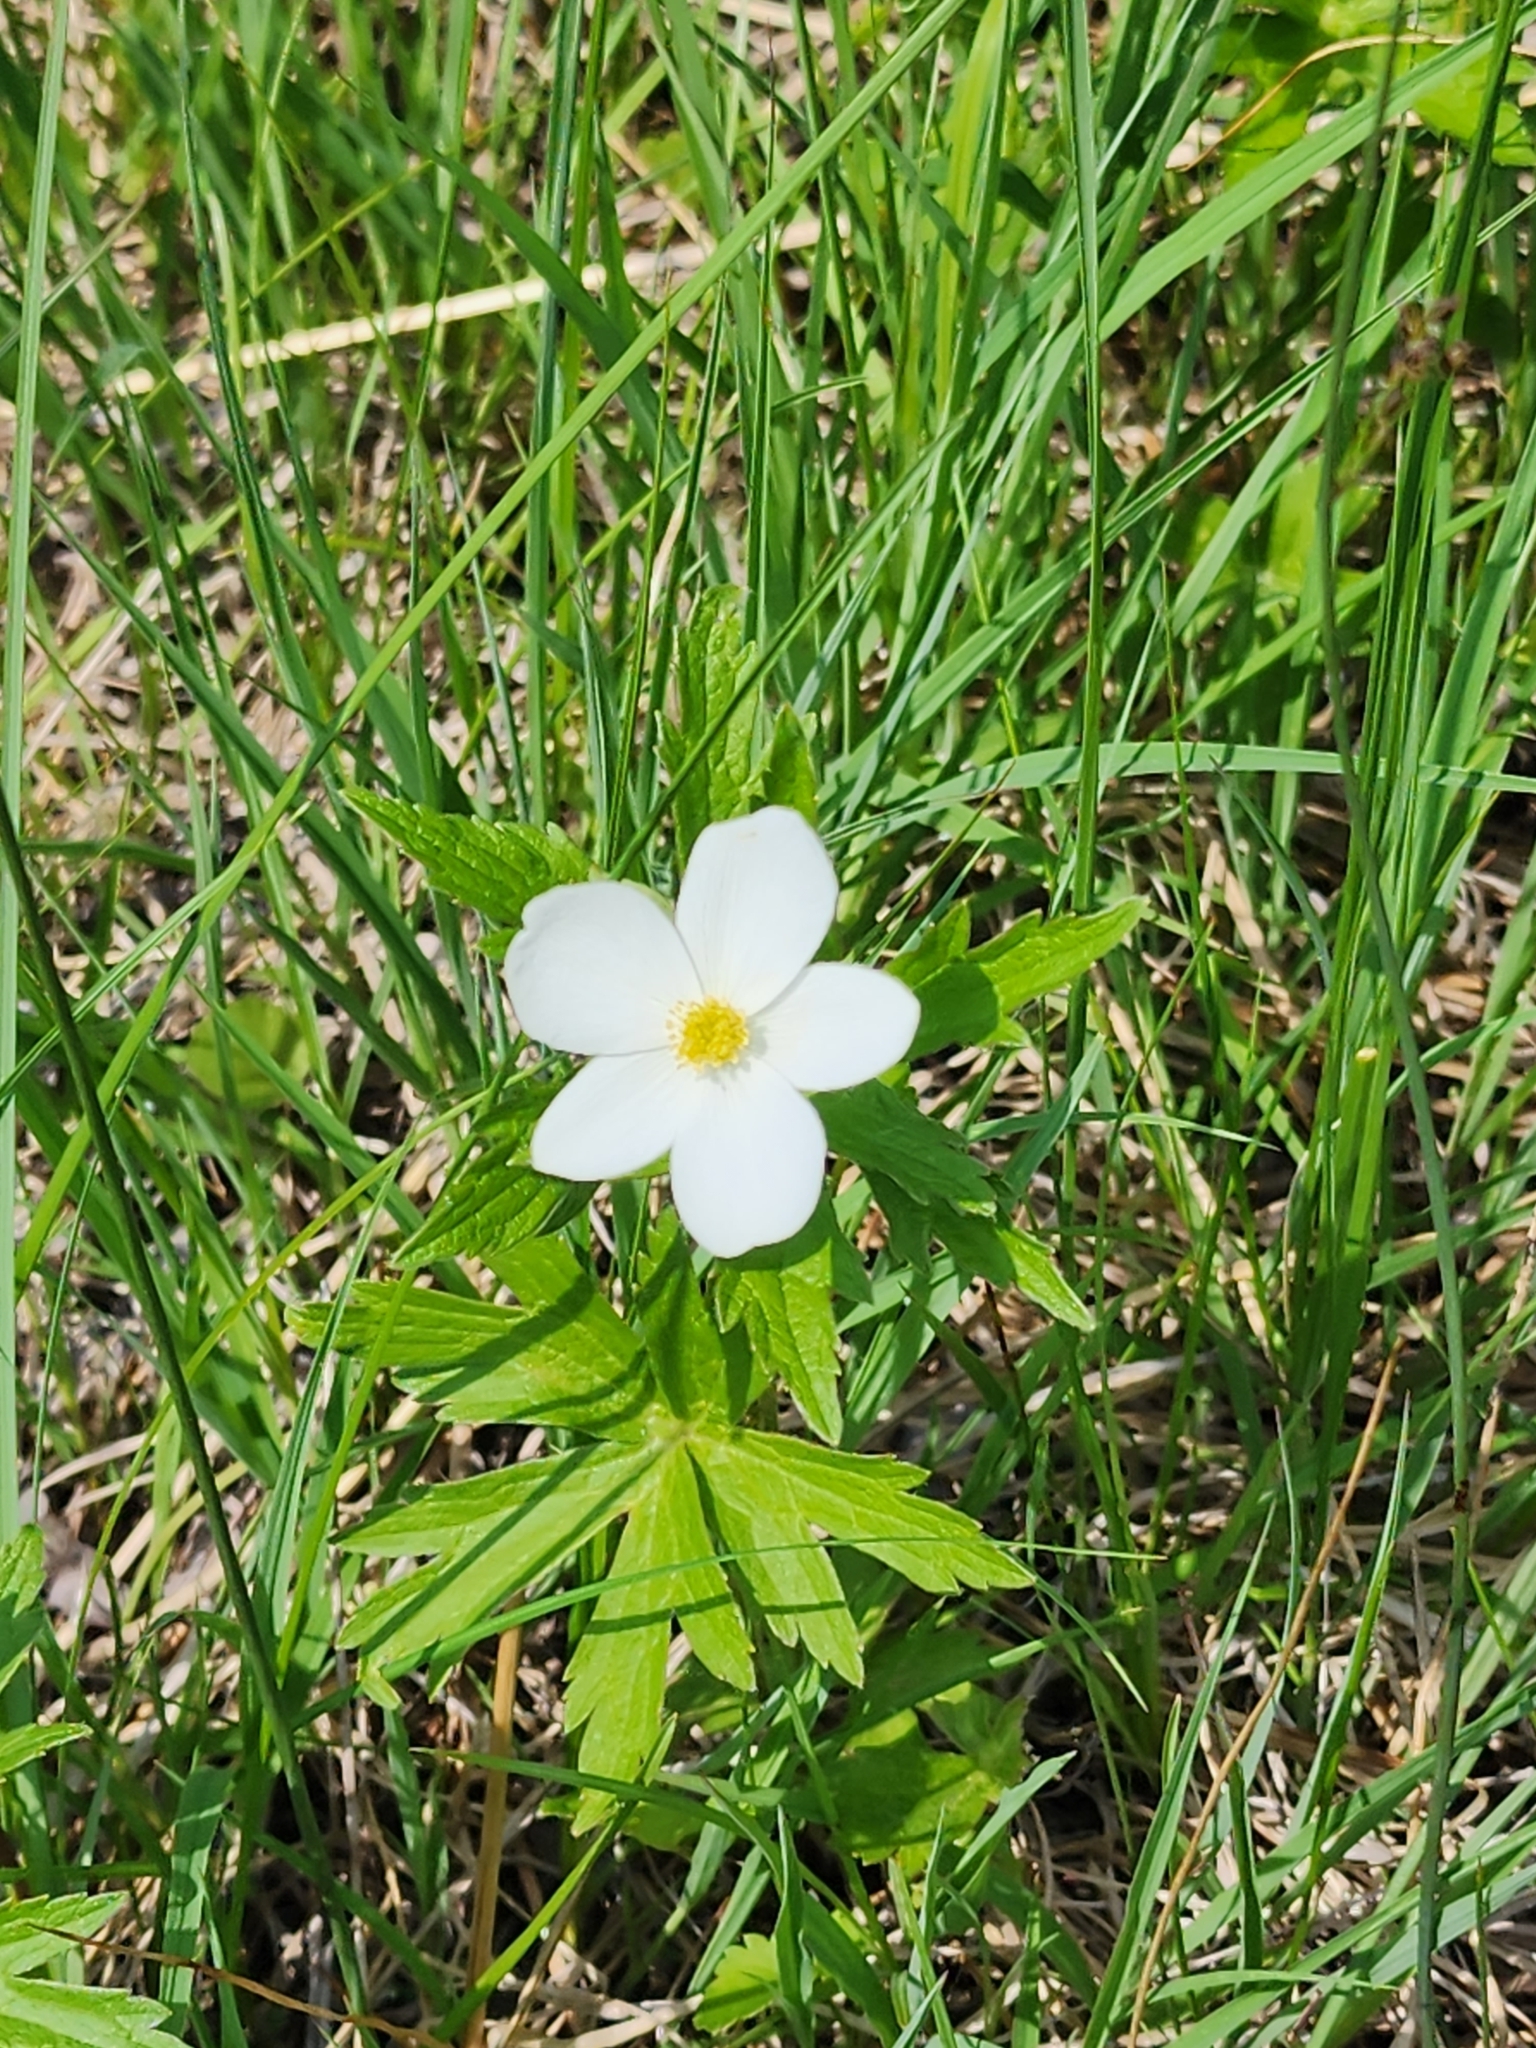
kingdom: Plantae
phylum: Tracheophyta
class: Magnoliopsida
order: Ranunculales
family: Ranunculaceae
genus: Anemonastrum
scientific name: Anemonastrum canadense
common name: Canada anemone
